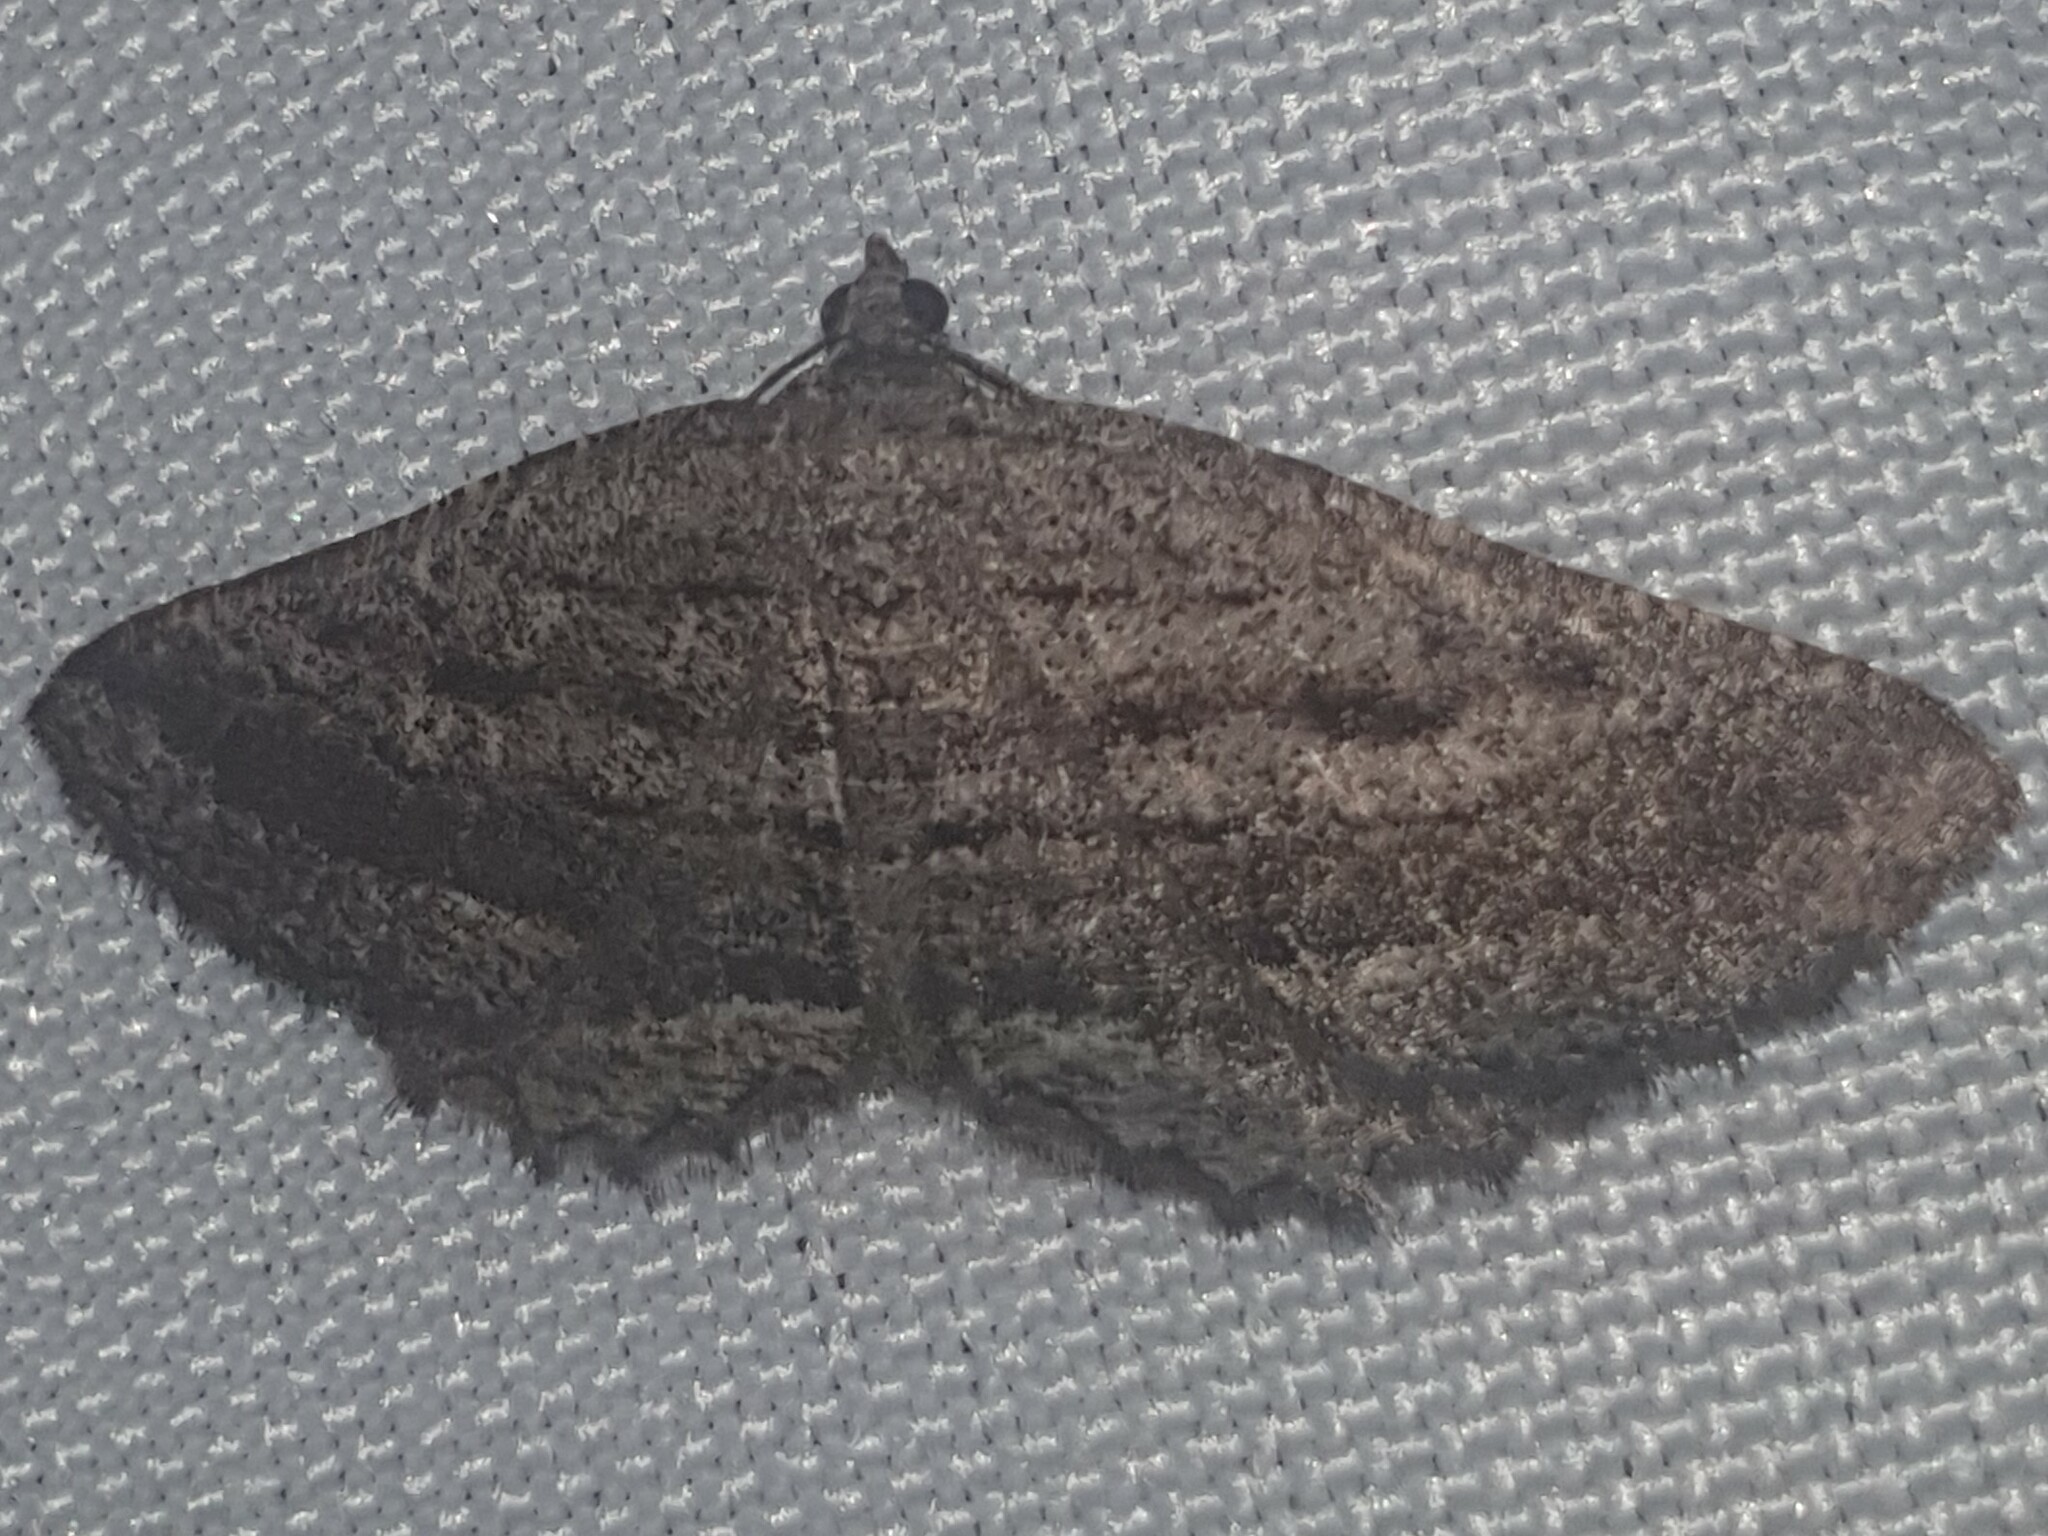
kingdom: Animalia
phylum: Arthropoda
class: Insecta
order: Lepidoptera
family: Geometridae
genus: Rhoptria
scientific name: Rhoptria asperaria
